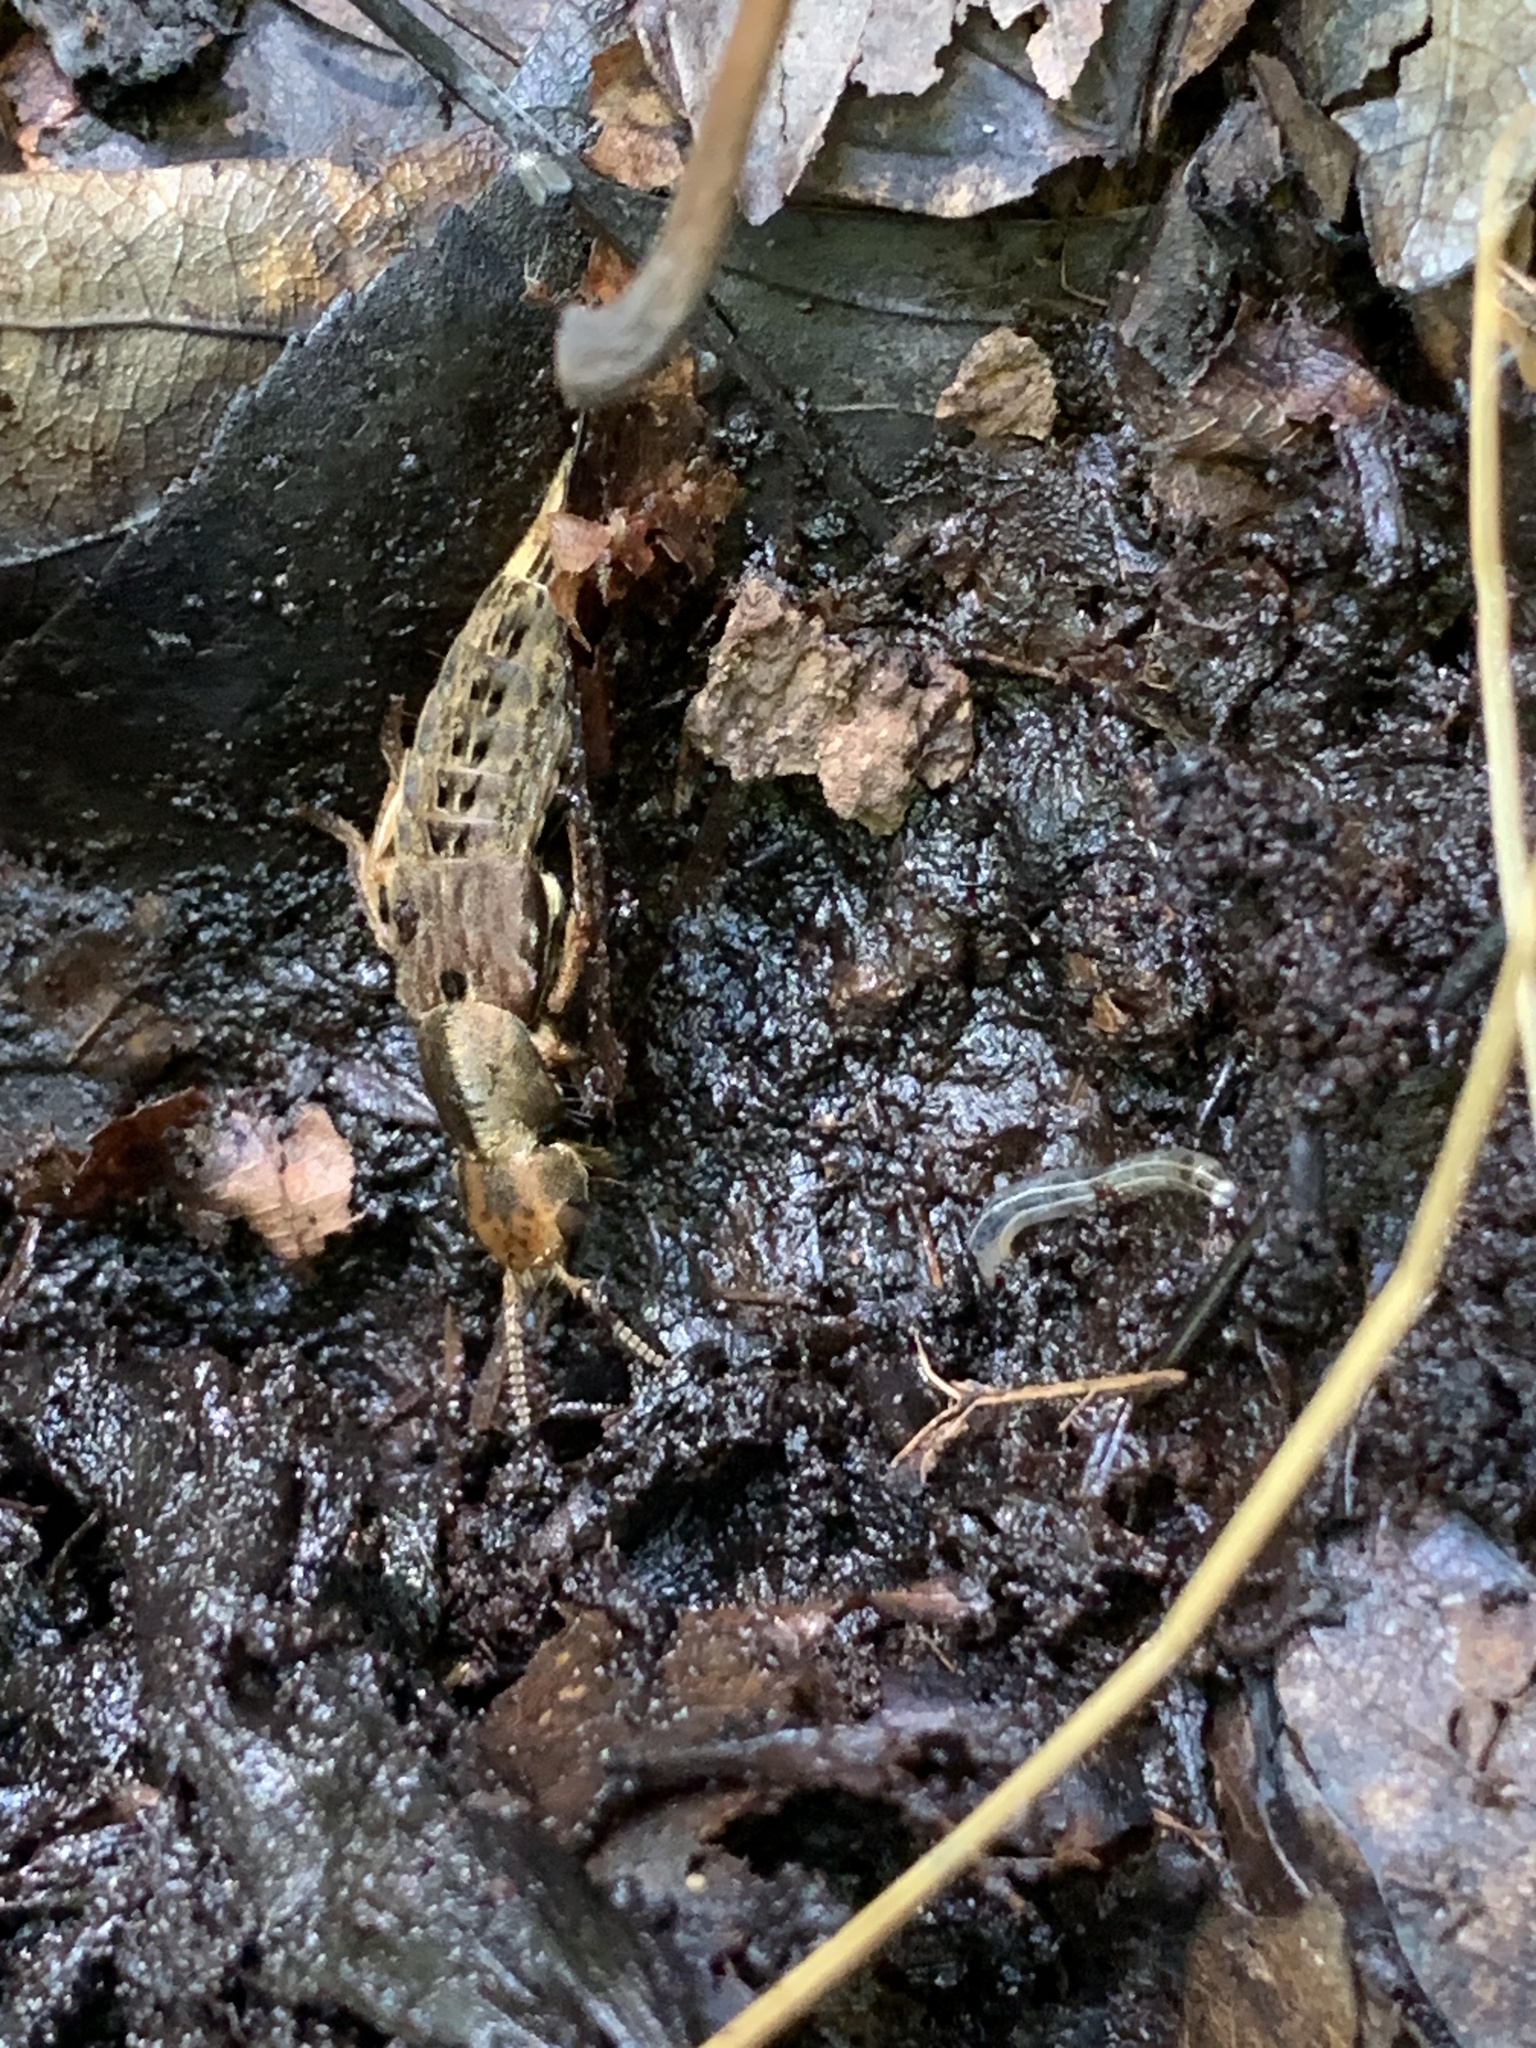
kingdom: Animalia
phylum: Arthropoda
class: Insecta
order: Coleoptera
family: Staphylinidae
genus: Platydracus
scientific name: Platydracus maculosus
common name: Brown rove beetle
